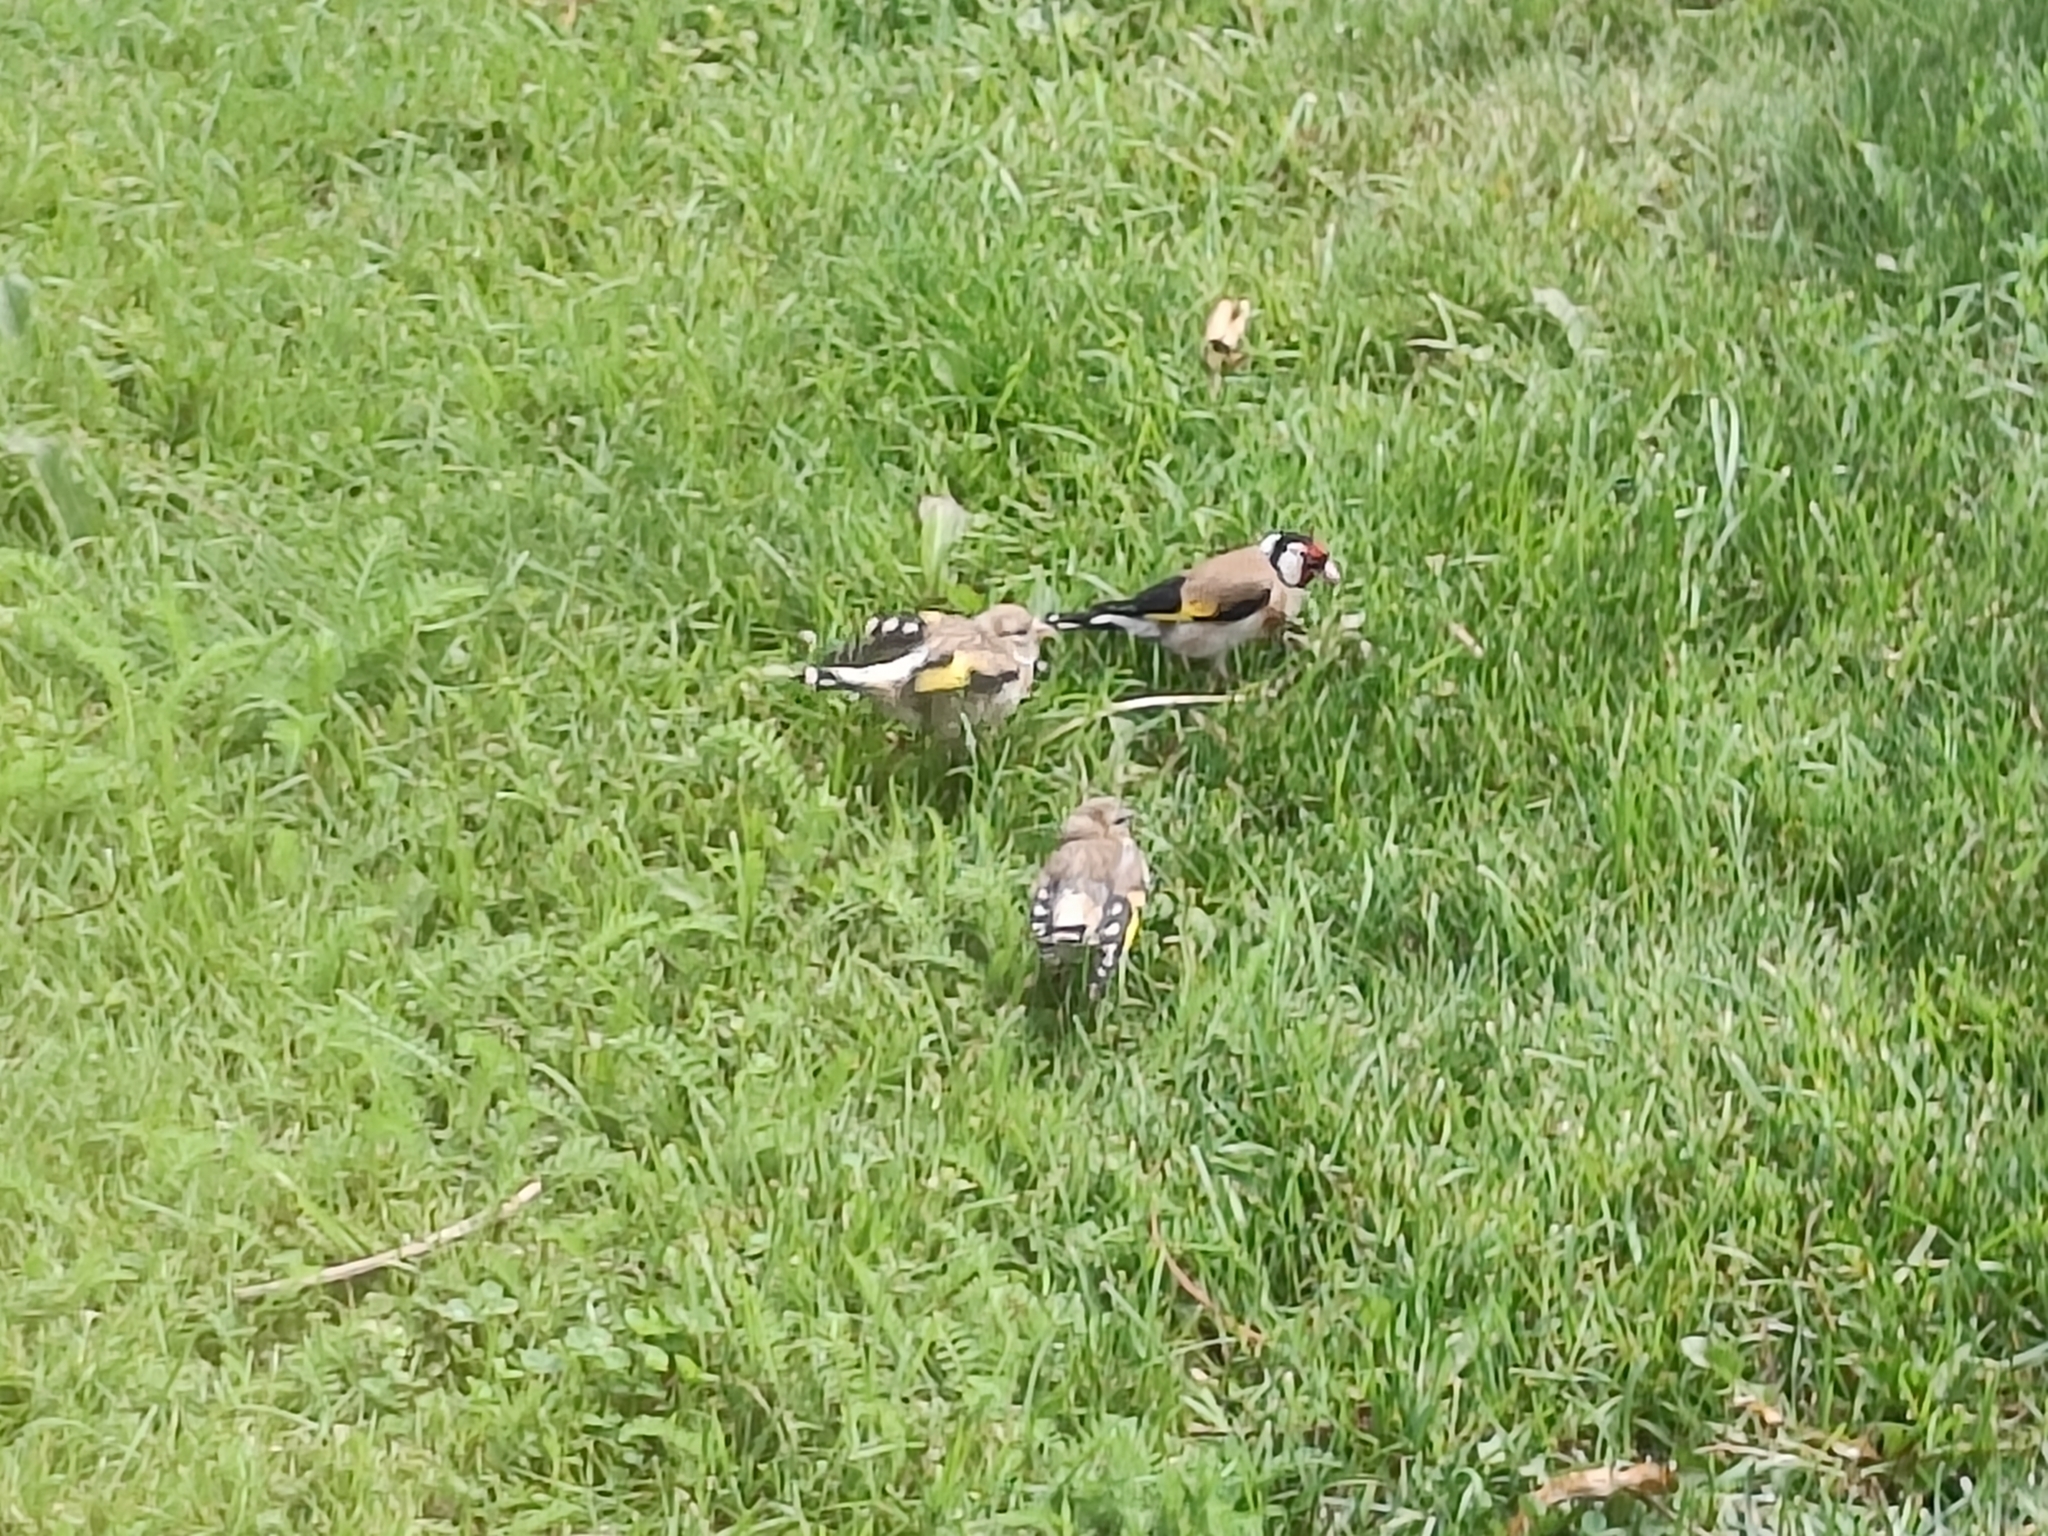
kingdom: Animalia
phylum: Chordata
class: Aves
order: Passeriformes
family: Fringillidae
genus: Carduelis
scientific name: Carduelis carduelis
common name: European goldfinch
